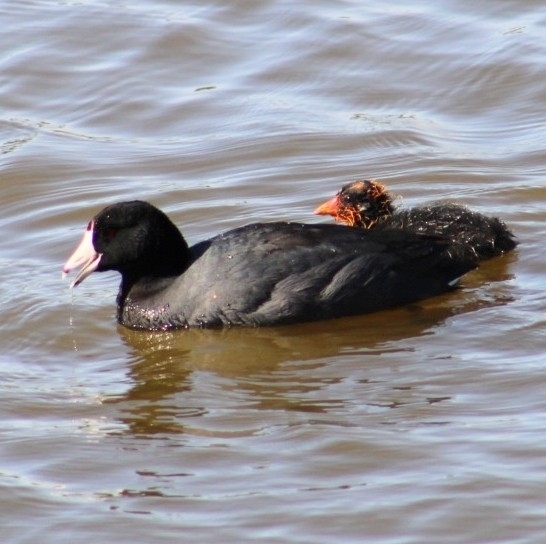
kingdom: Animalia
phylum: Chordata
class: Aves
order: Gruiformes
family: Rallidae
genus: Fulica
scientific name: Fulica americana
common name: American coot
